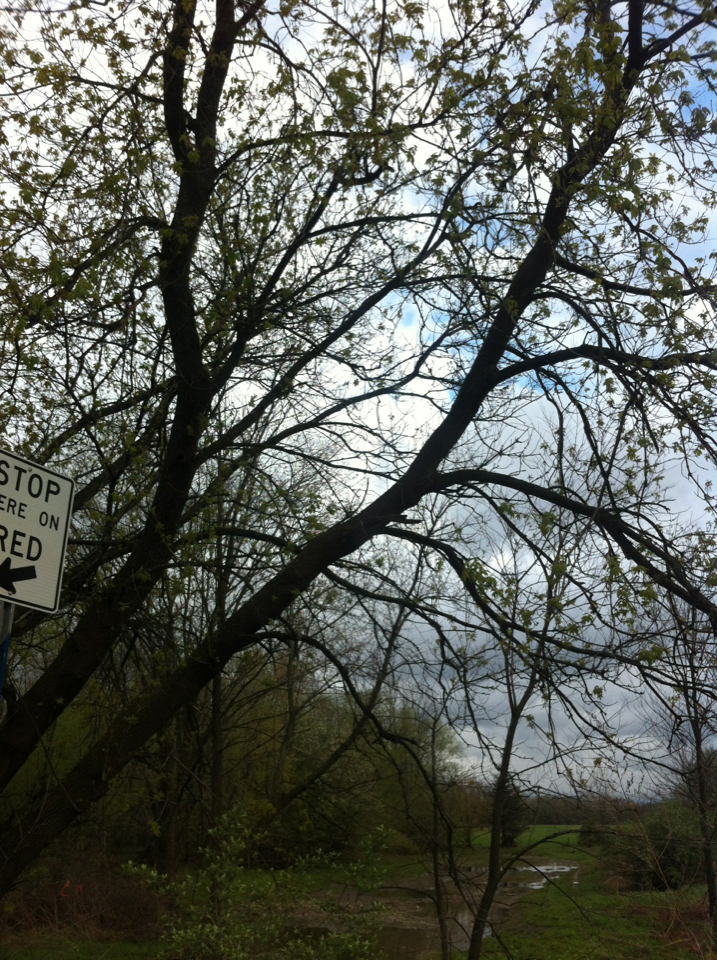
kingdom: Plantae
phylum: Tracheophyta
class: Magnoliopsida
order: Sapindales
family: Sapindaceae
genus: Acer
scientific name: Acer negundo
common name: Ashleaf maple
